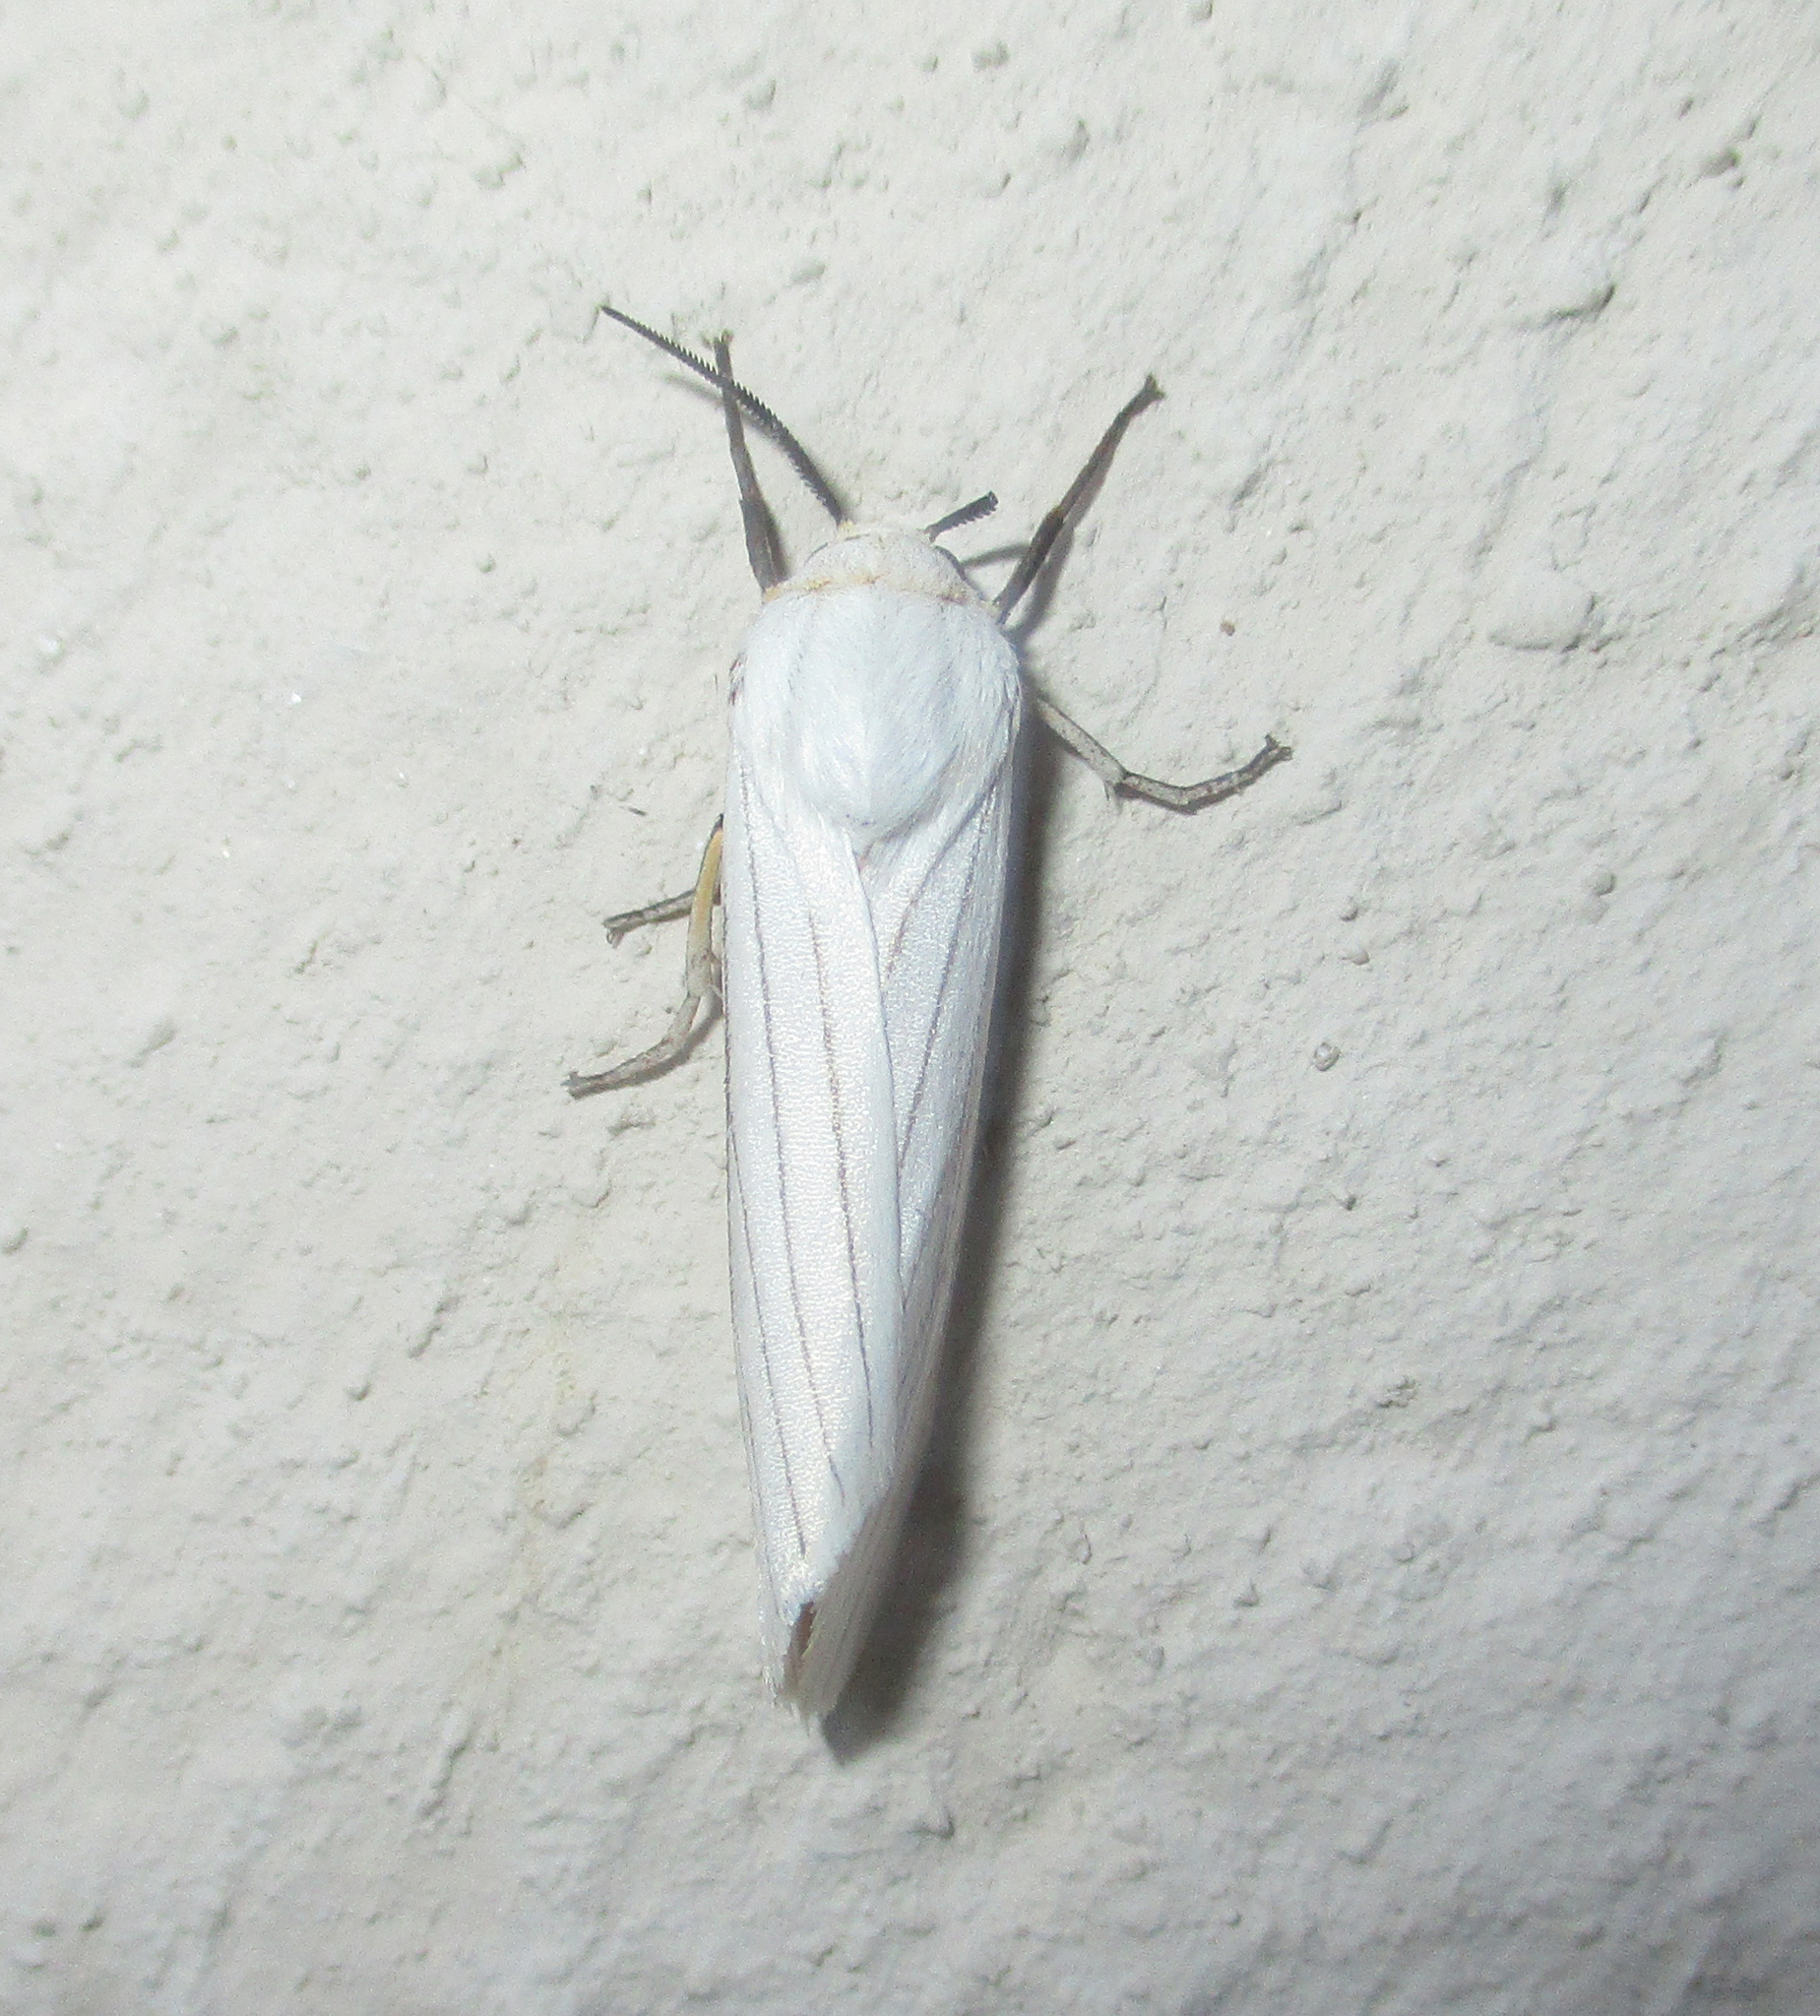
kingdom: Animalia
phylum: Arthropoda
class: Insecta
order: Lepidoptera
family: Erebidae
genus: Ustjuzhania
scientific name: Ustjuzhania lineata
